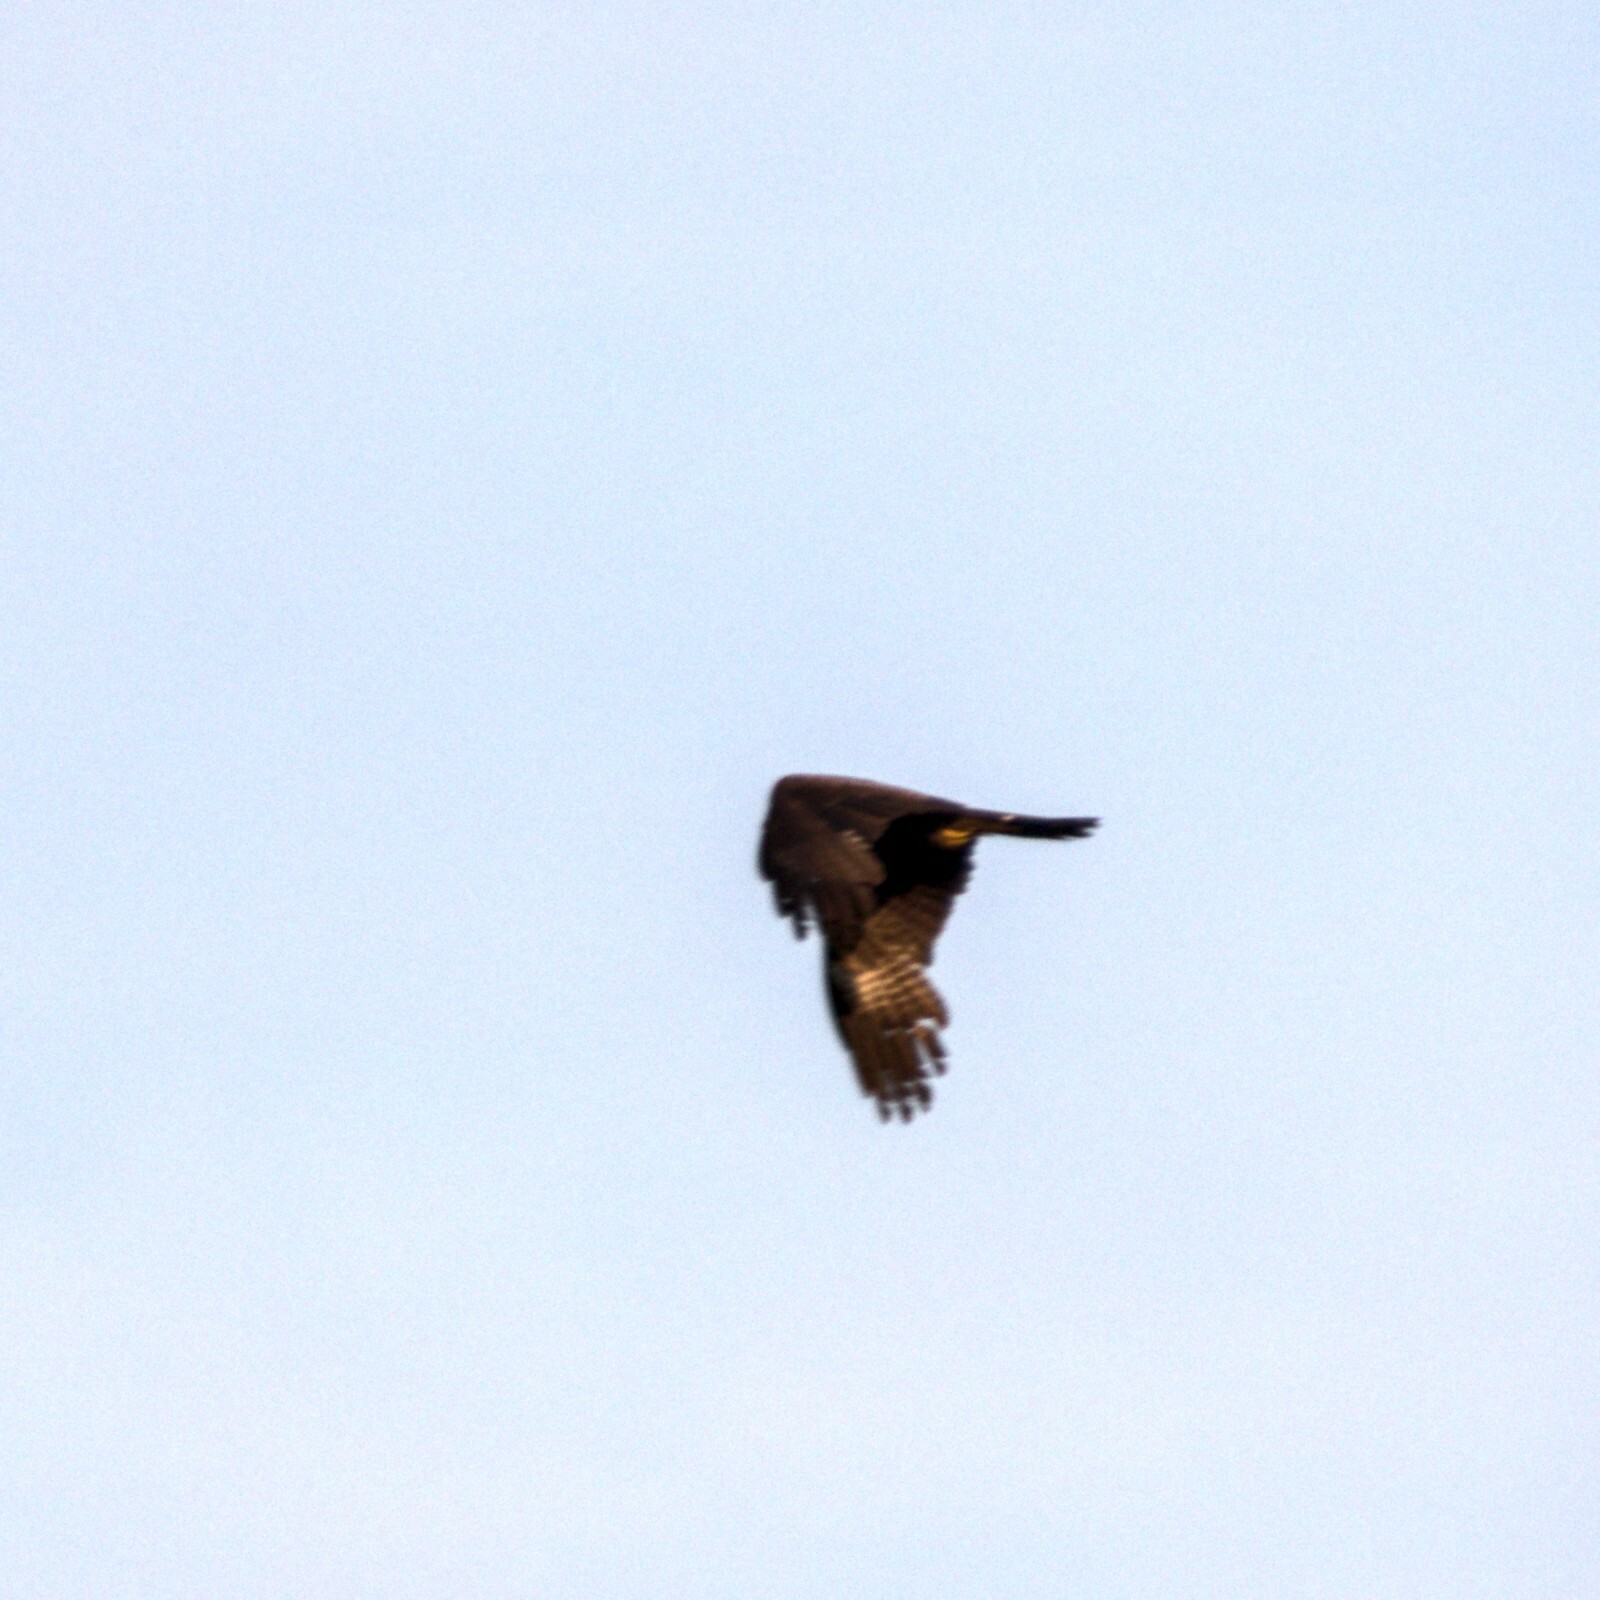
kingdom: Animalia
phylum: Chordata
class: Aves
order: Accipitriformes
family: Accipitridae
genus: Milvus
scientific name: Milvus migrans
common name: Black kite
